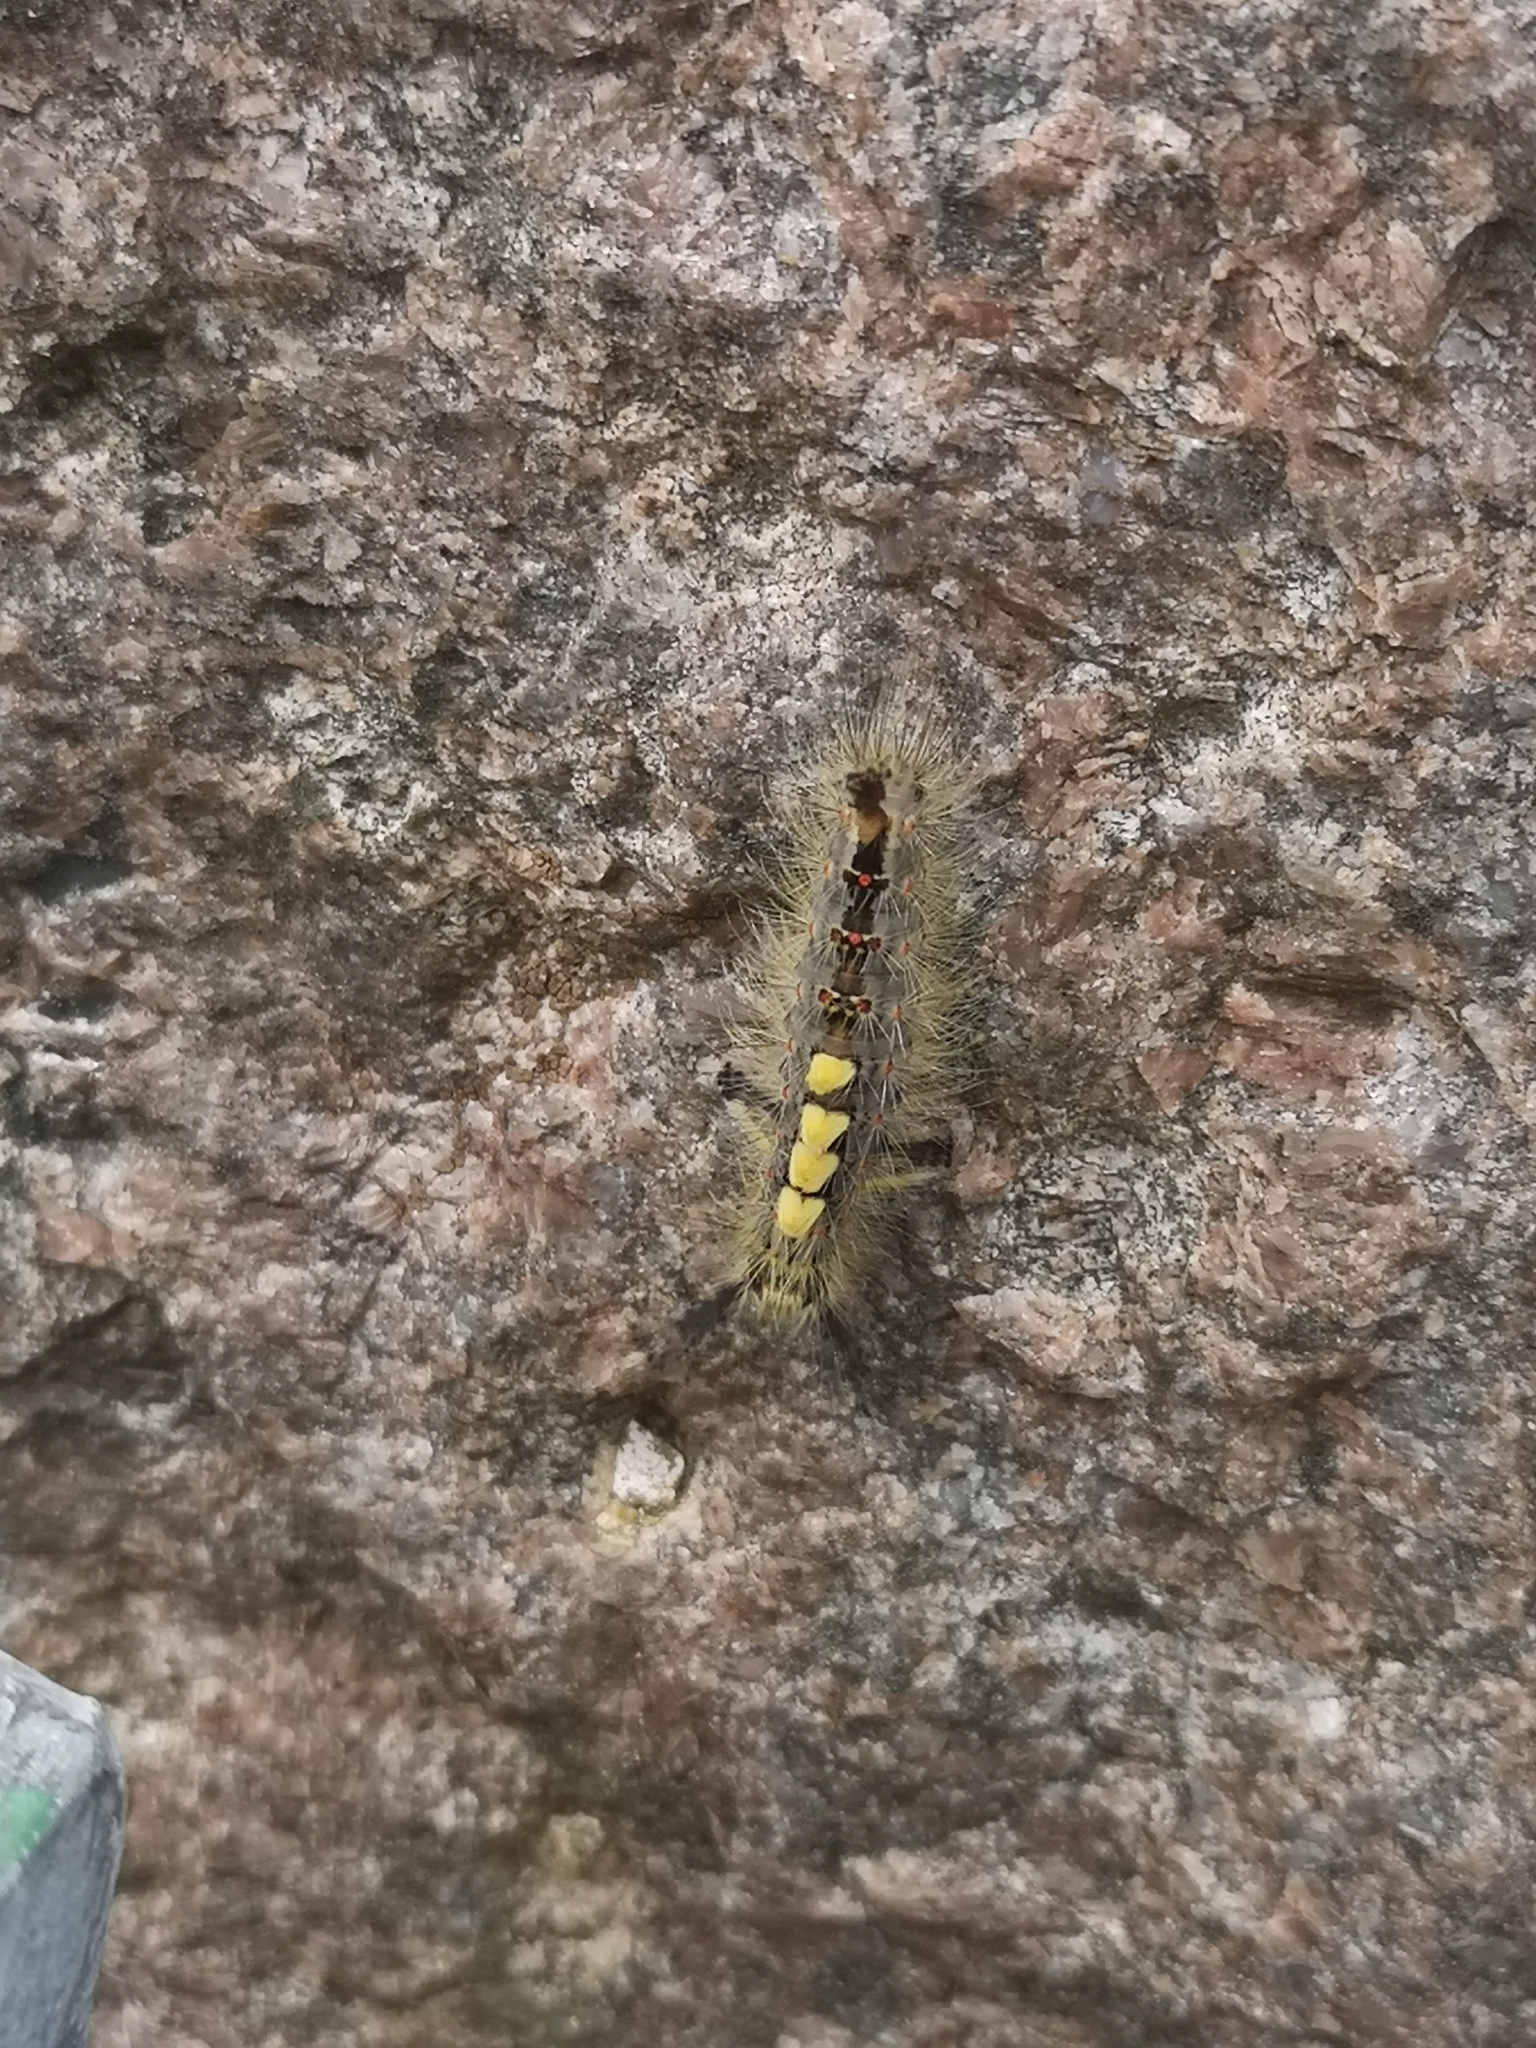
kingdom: Animalia
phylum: Arthropoda
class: Insecta
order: Lepidoptera
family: Erebidae
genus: Orgyia
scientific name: Orgyia antiqua
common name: Vapourer
